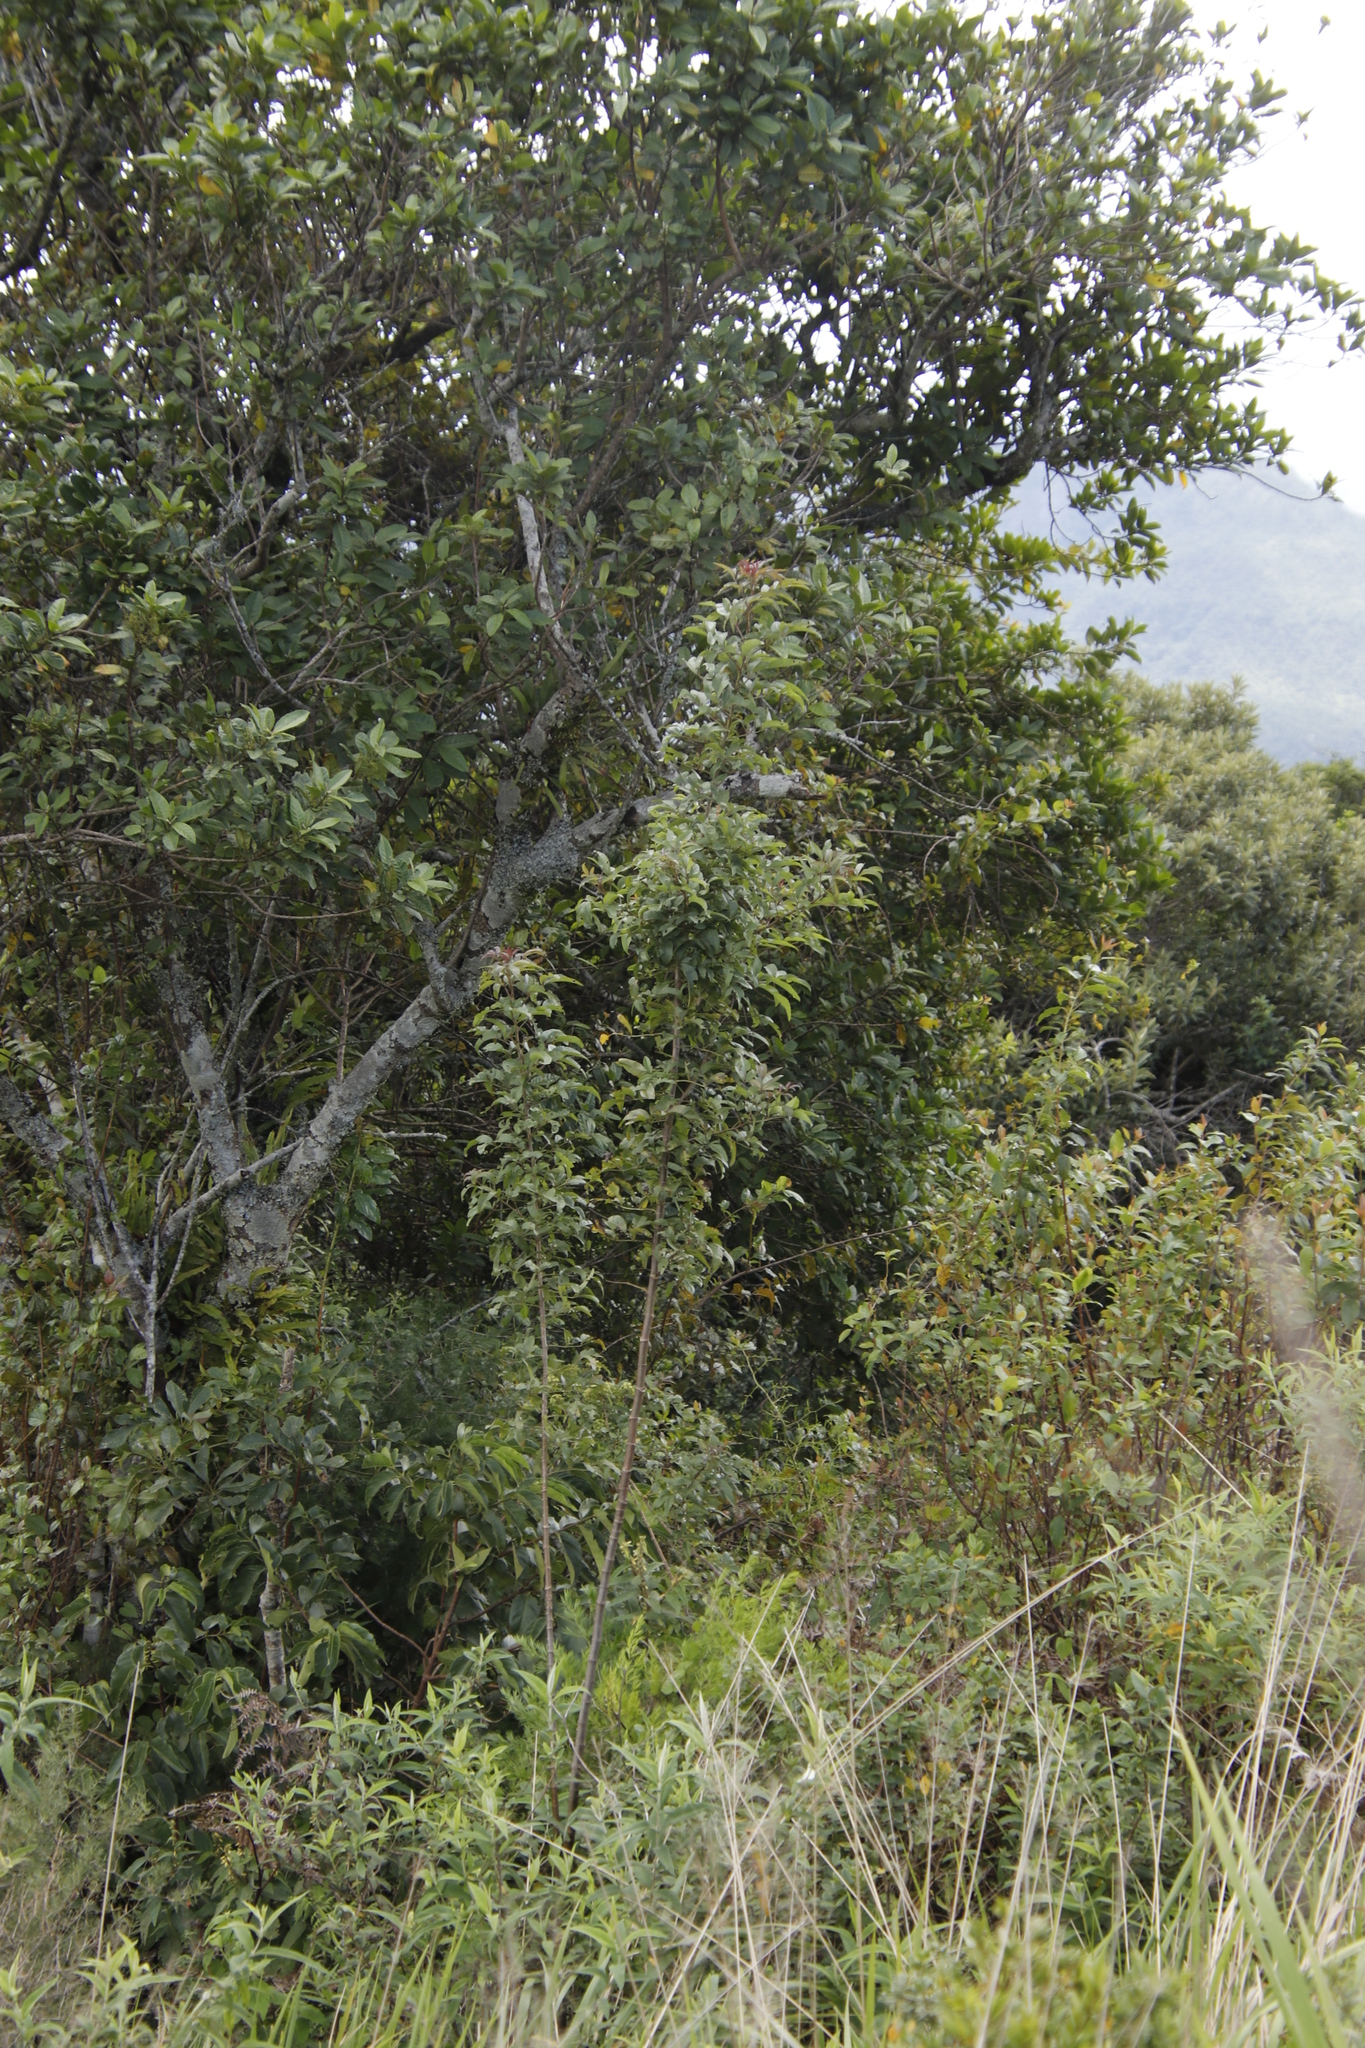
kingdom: Plantae
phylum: Tracheophyta
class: Magnoliopsida
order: Apiales
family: Apiaceae
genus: Heteromorpha
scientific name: Heteromorpha arborescens
